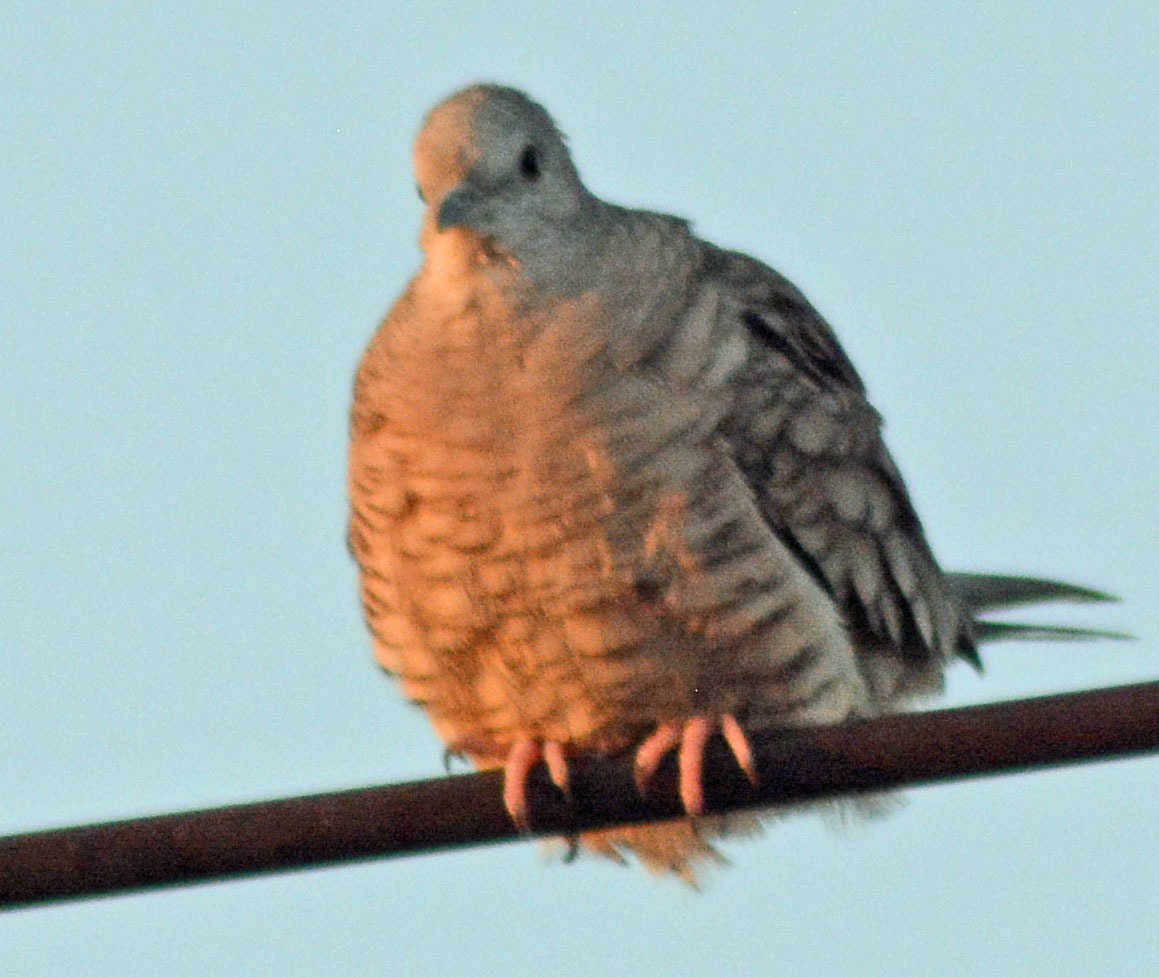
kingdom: Animalia
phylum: Chordata
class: Aves
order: Columbiformes
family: Columbidae
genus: Columbina
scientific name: Columbina inca
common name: Inca dove
